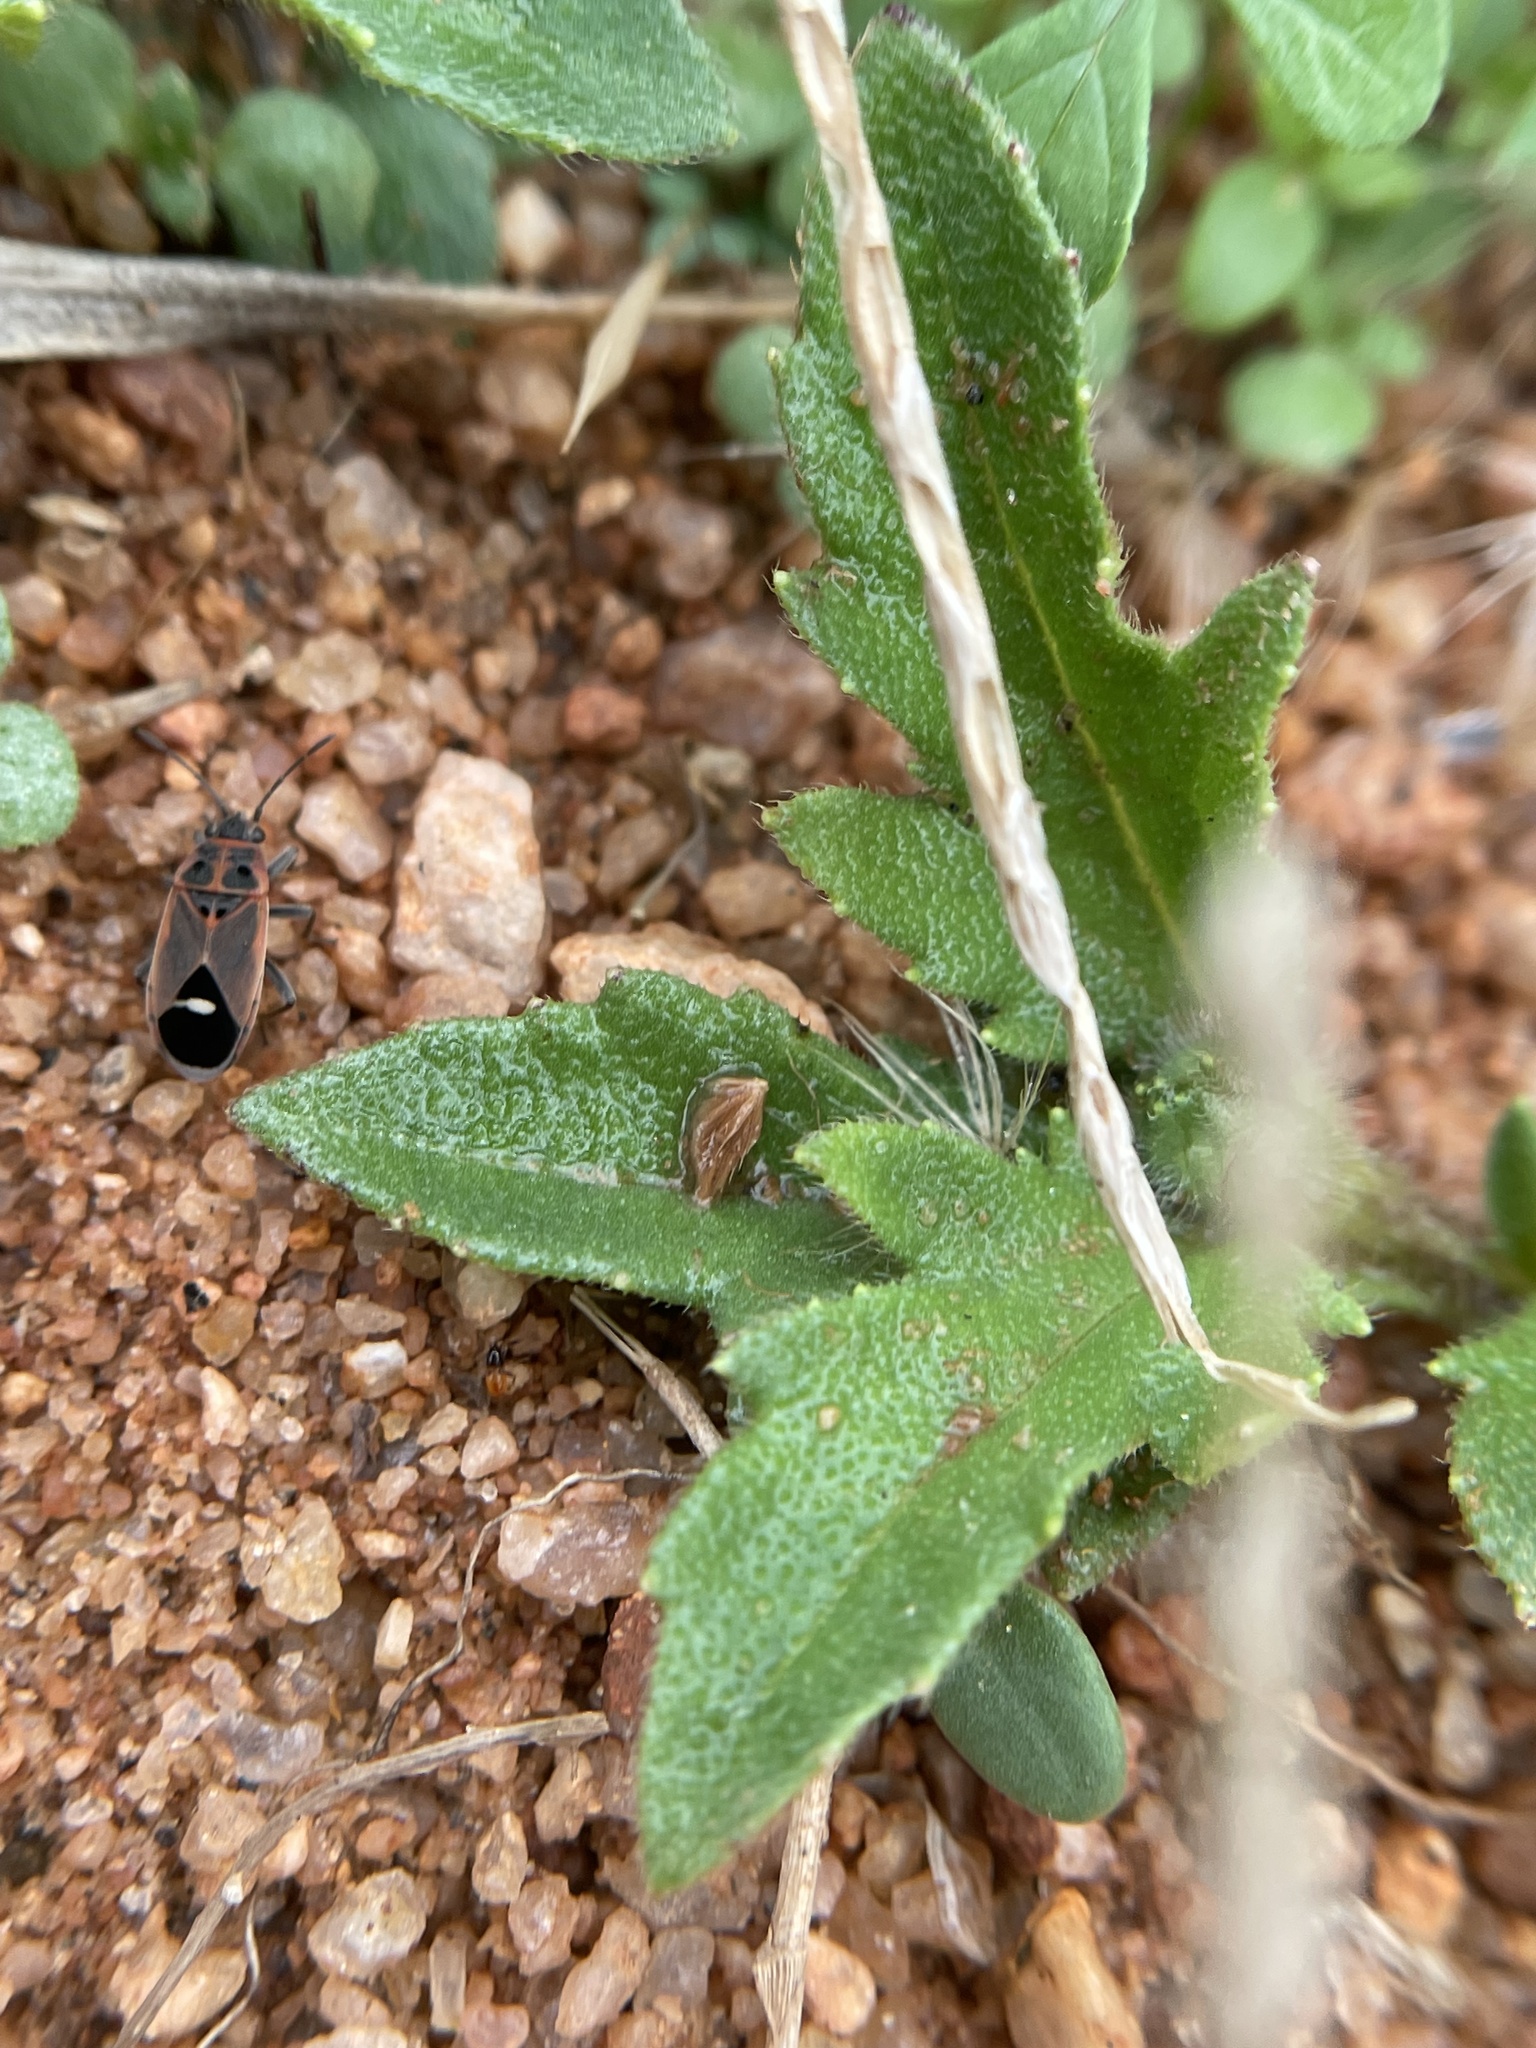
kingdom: Animalia
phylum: Arthropoda
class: Insecta
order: Hemiptera
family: Lygaeidae
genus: Aspilocoryphus
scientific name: Aspilocoryphus mendicus
